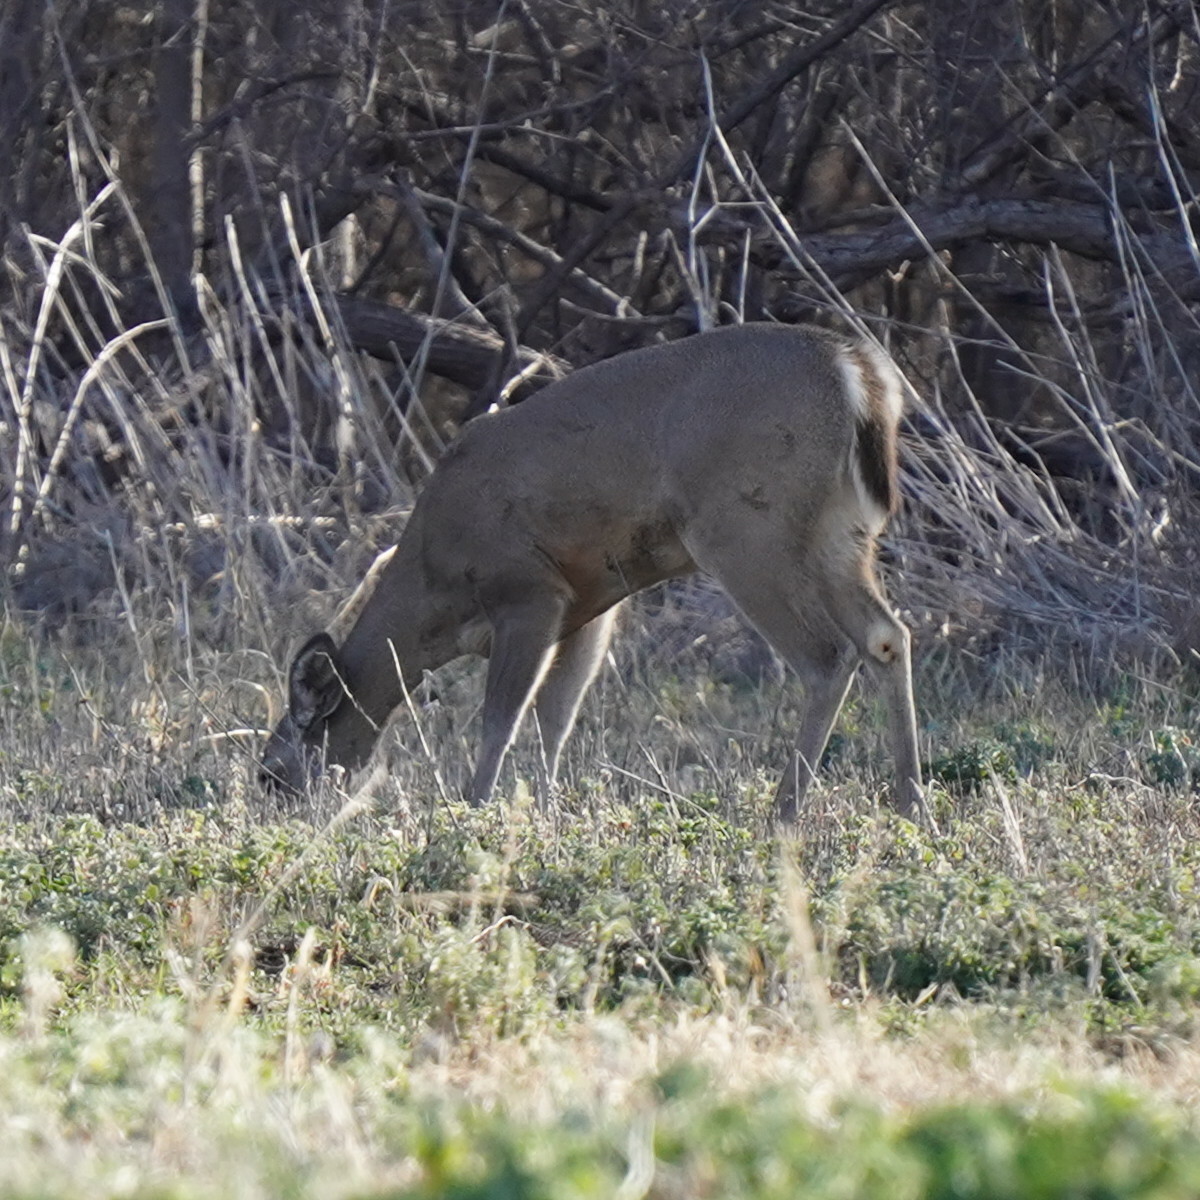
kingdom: Animalia
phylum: Chordata
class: Mammalia
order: Artiodactyla
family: Cervidae
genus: Odocoileus
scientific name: Odocoileus virginianus
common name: White-tailed deer
